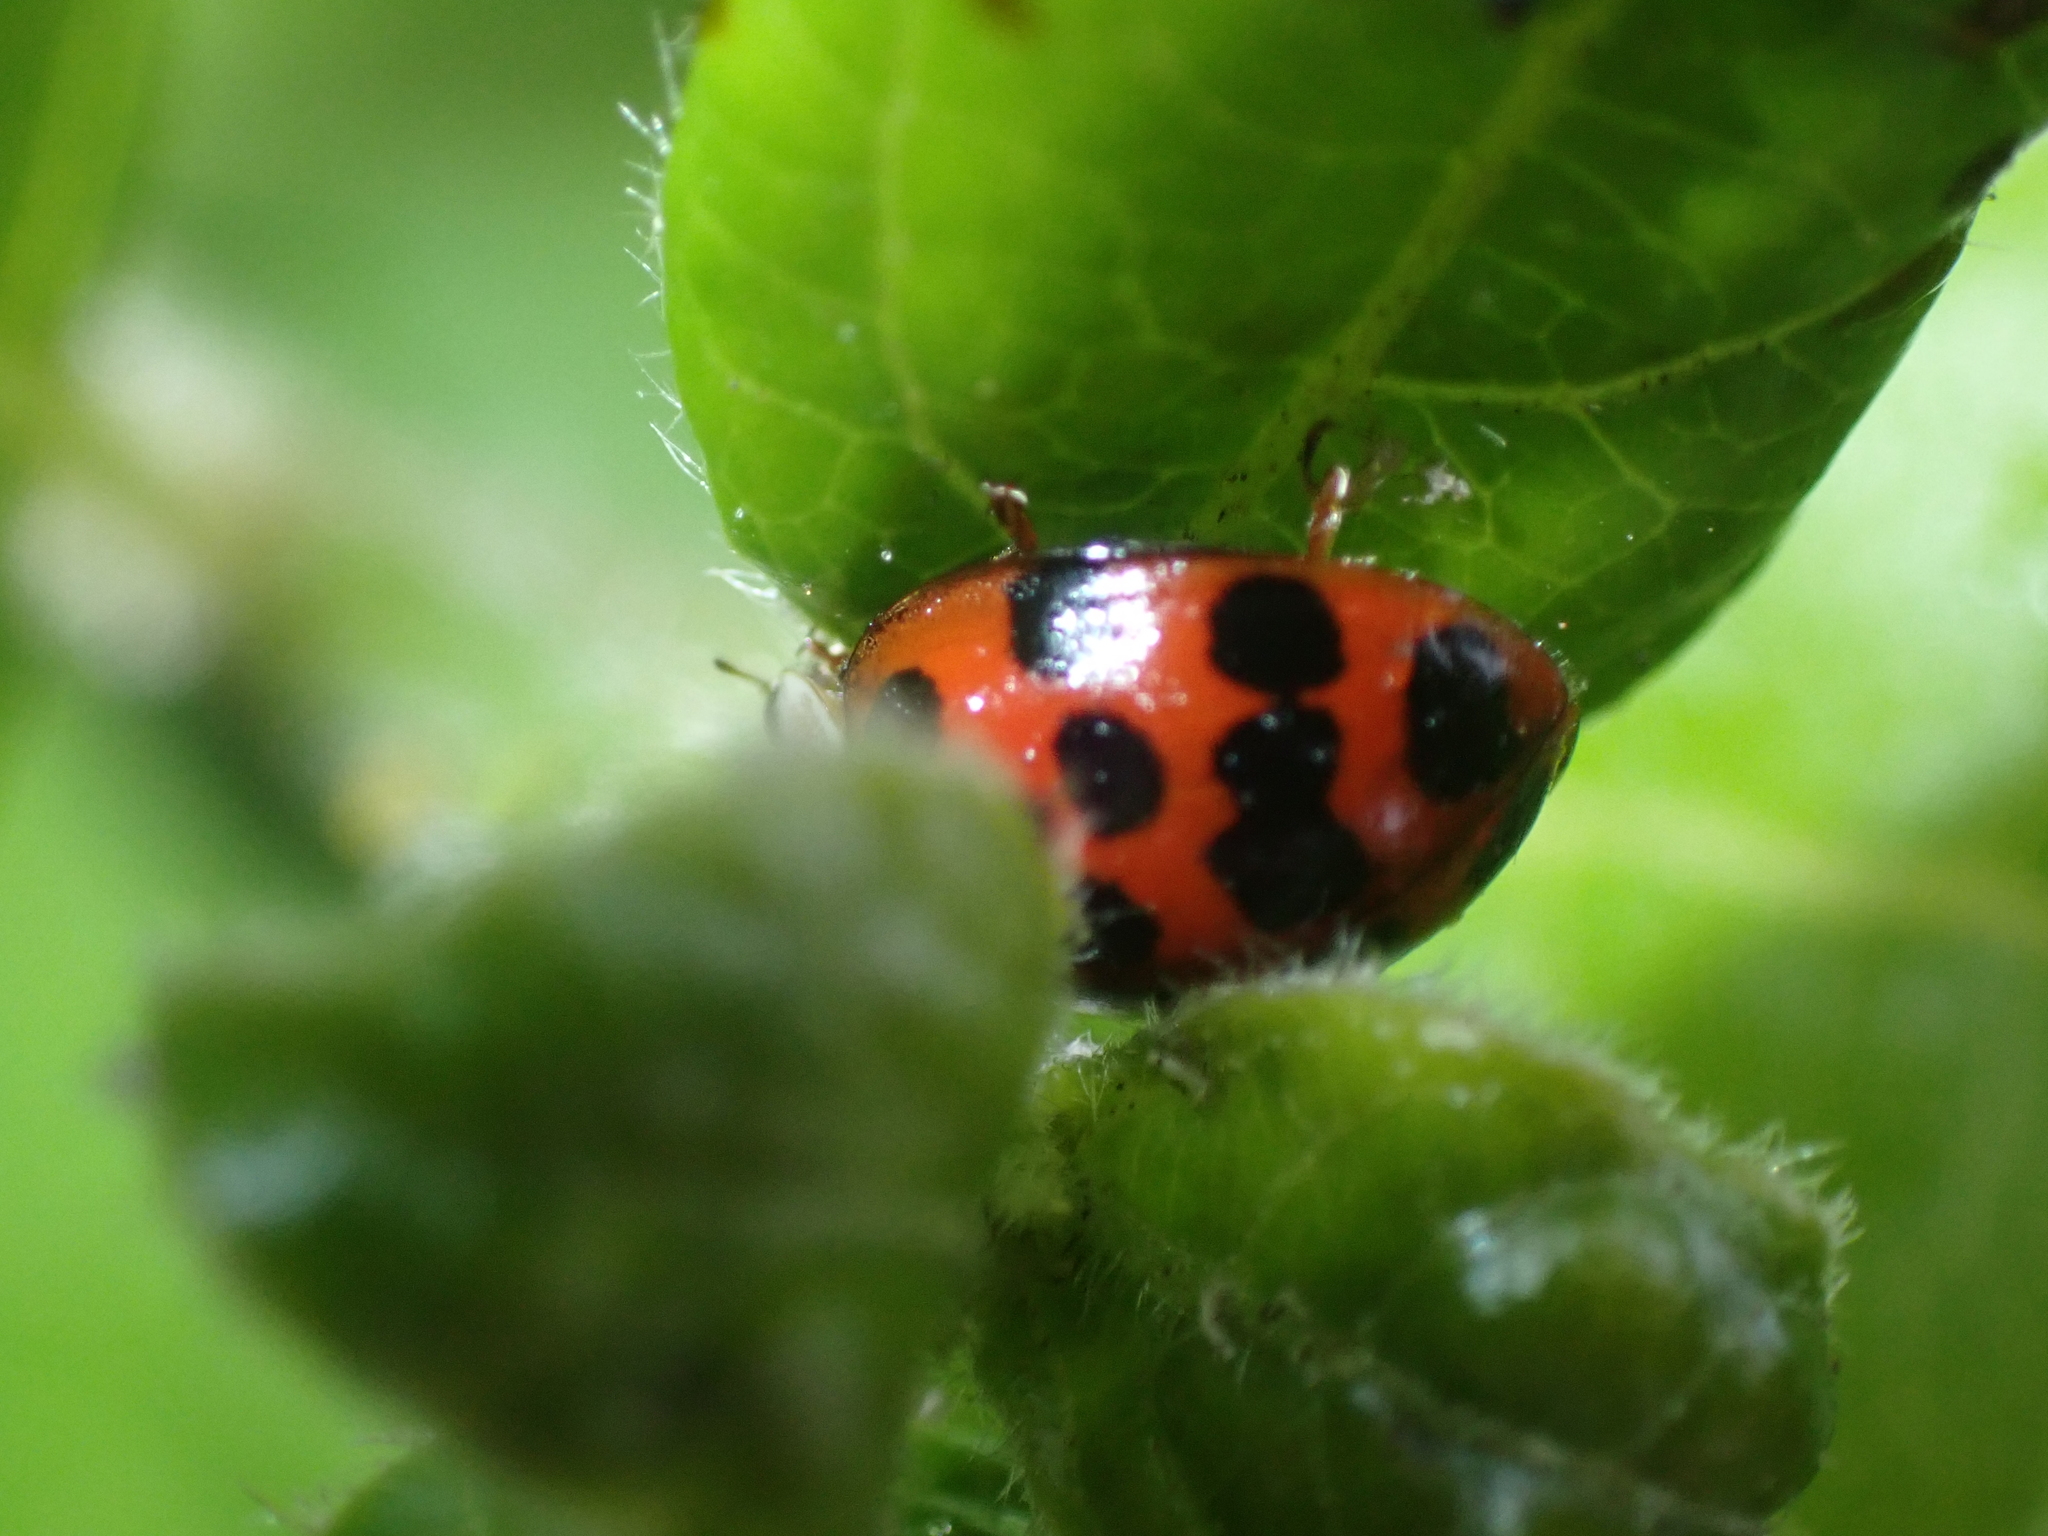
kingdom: Animalia
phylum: Arthropoda
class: Insecta
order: Coleoptera
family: Coccinellidae
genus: Harmonia
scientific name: Harmonia axyridis
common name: Harlequin ladybird
